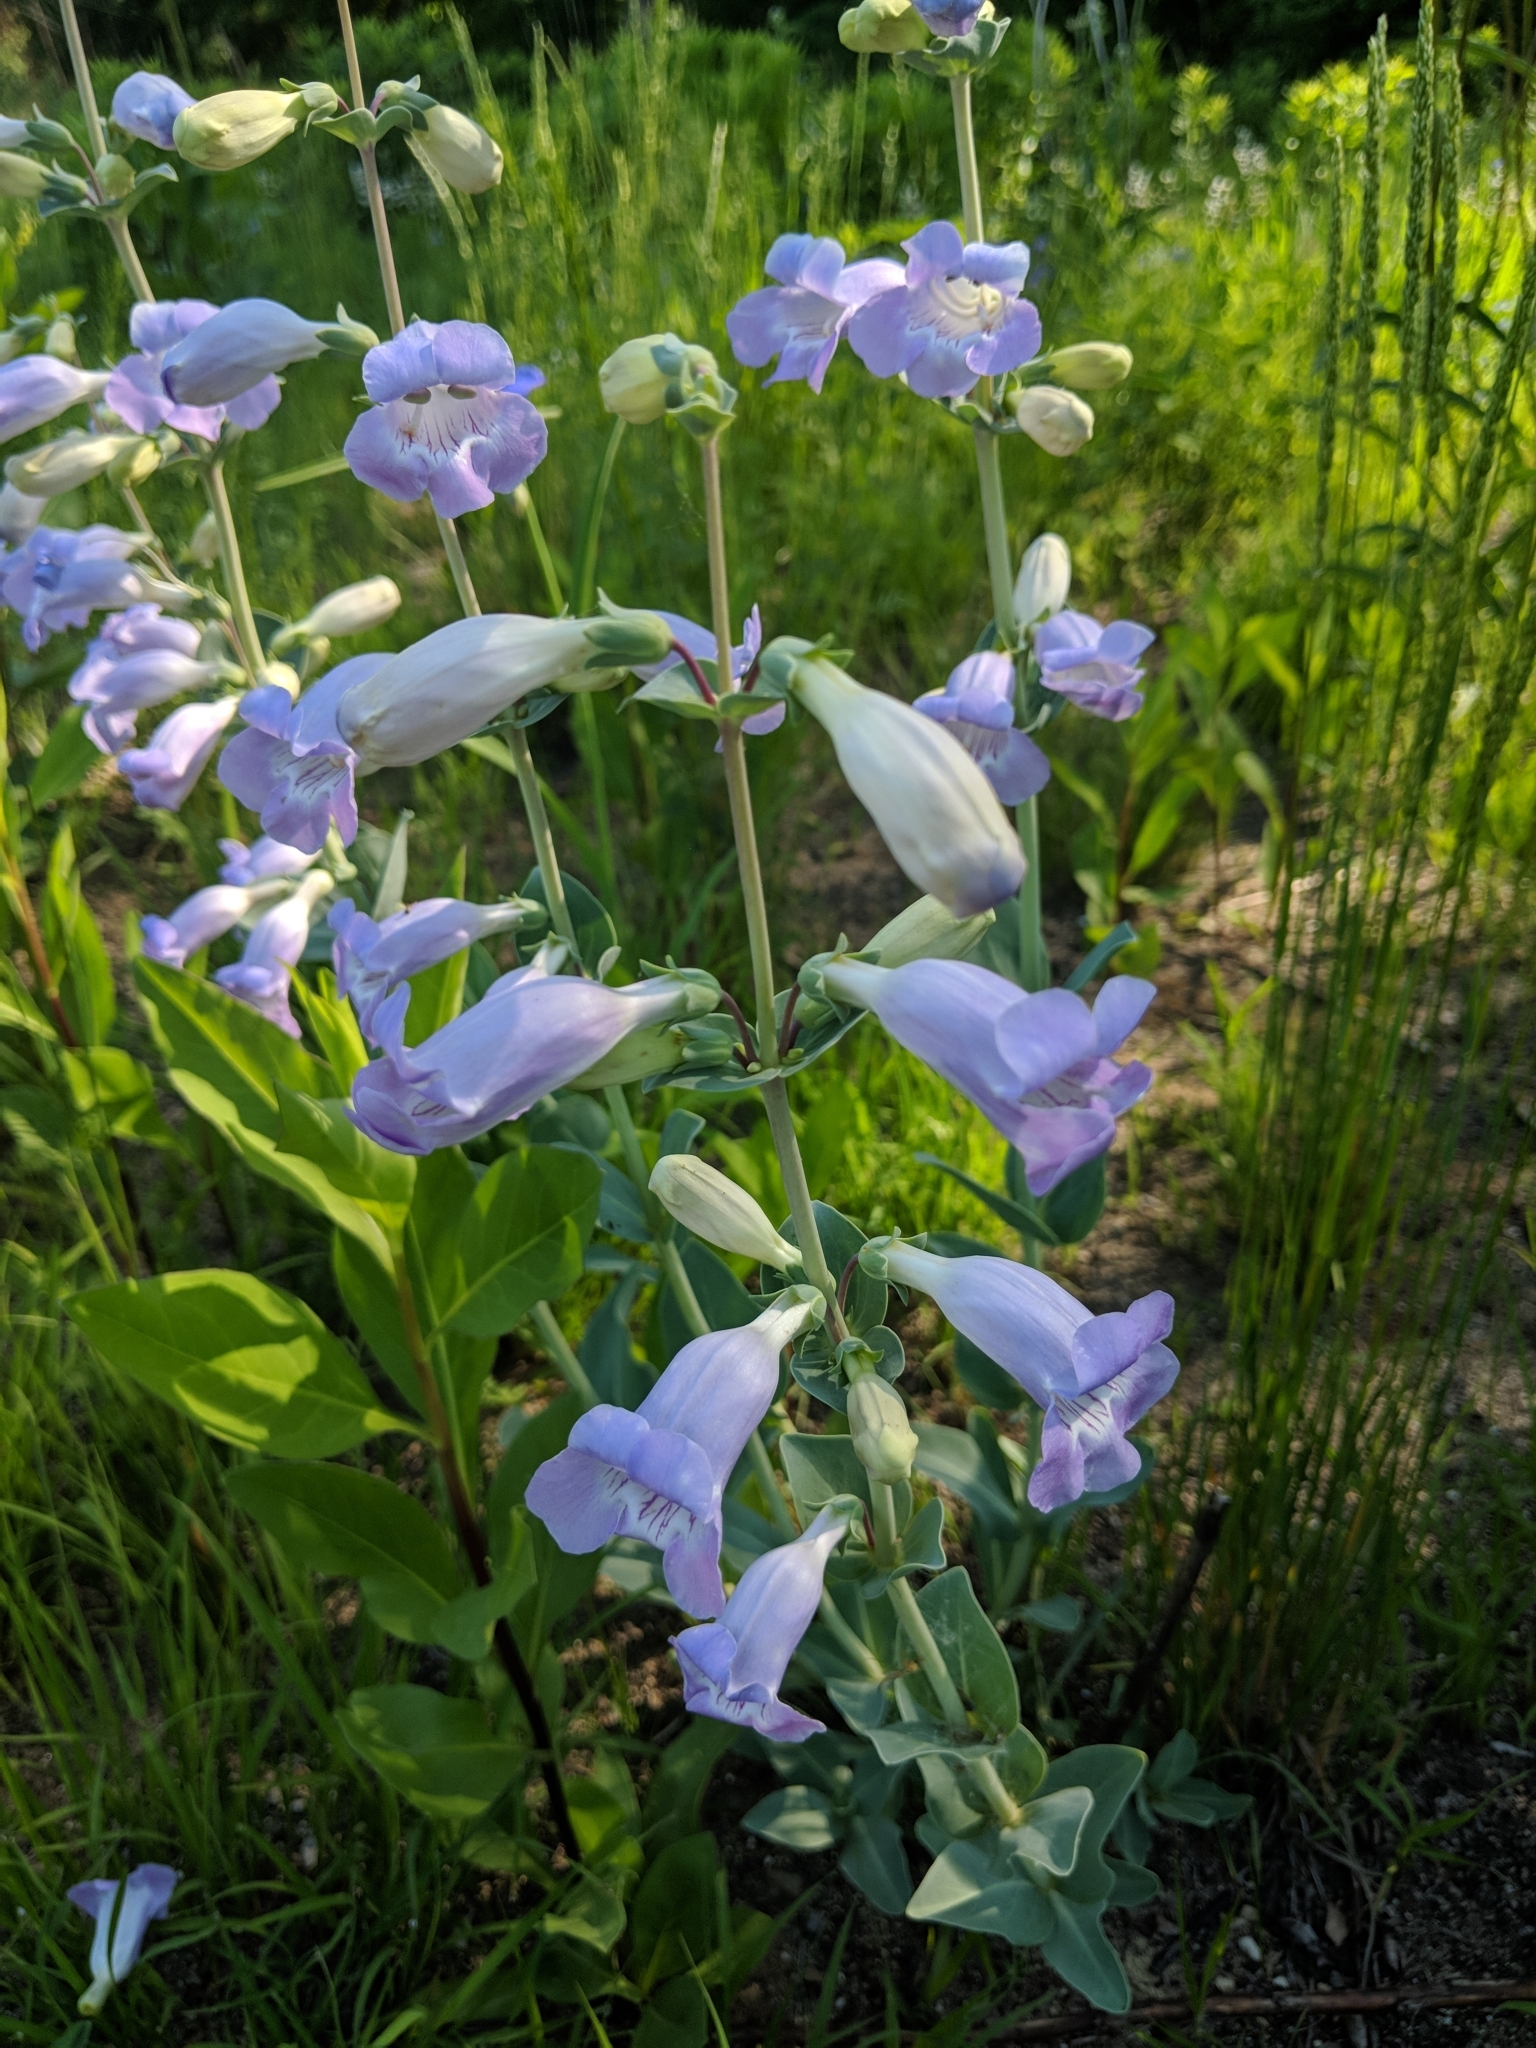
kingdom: Plantae
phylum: Tracheophyta
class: Magnoliopsida
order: Lamiales
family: Plantaginaceae
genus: Penstemon
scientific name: Penstemon
